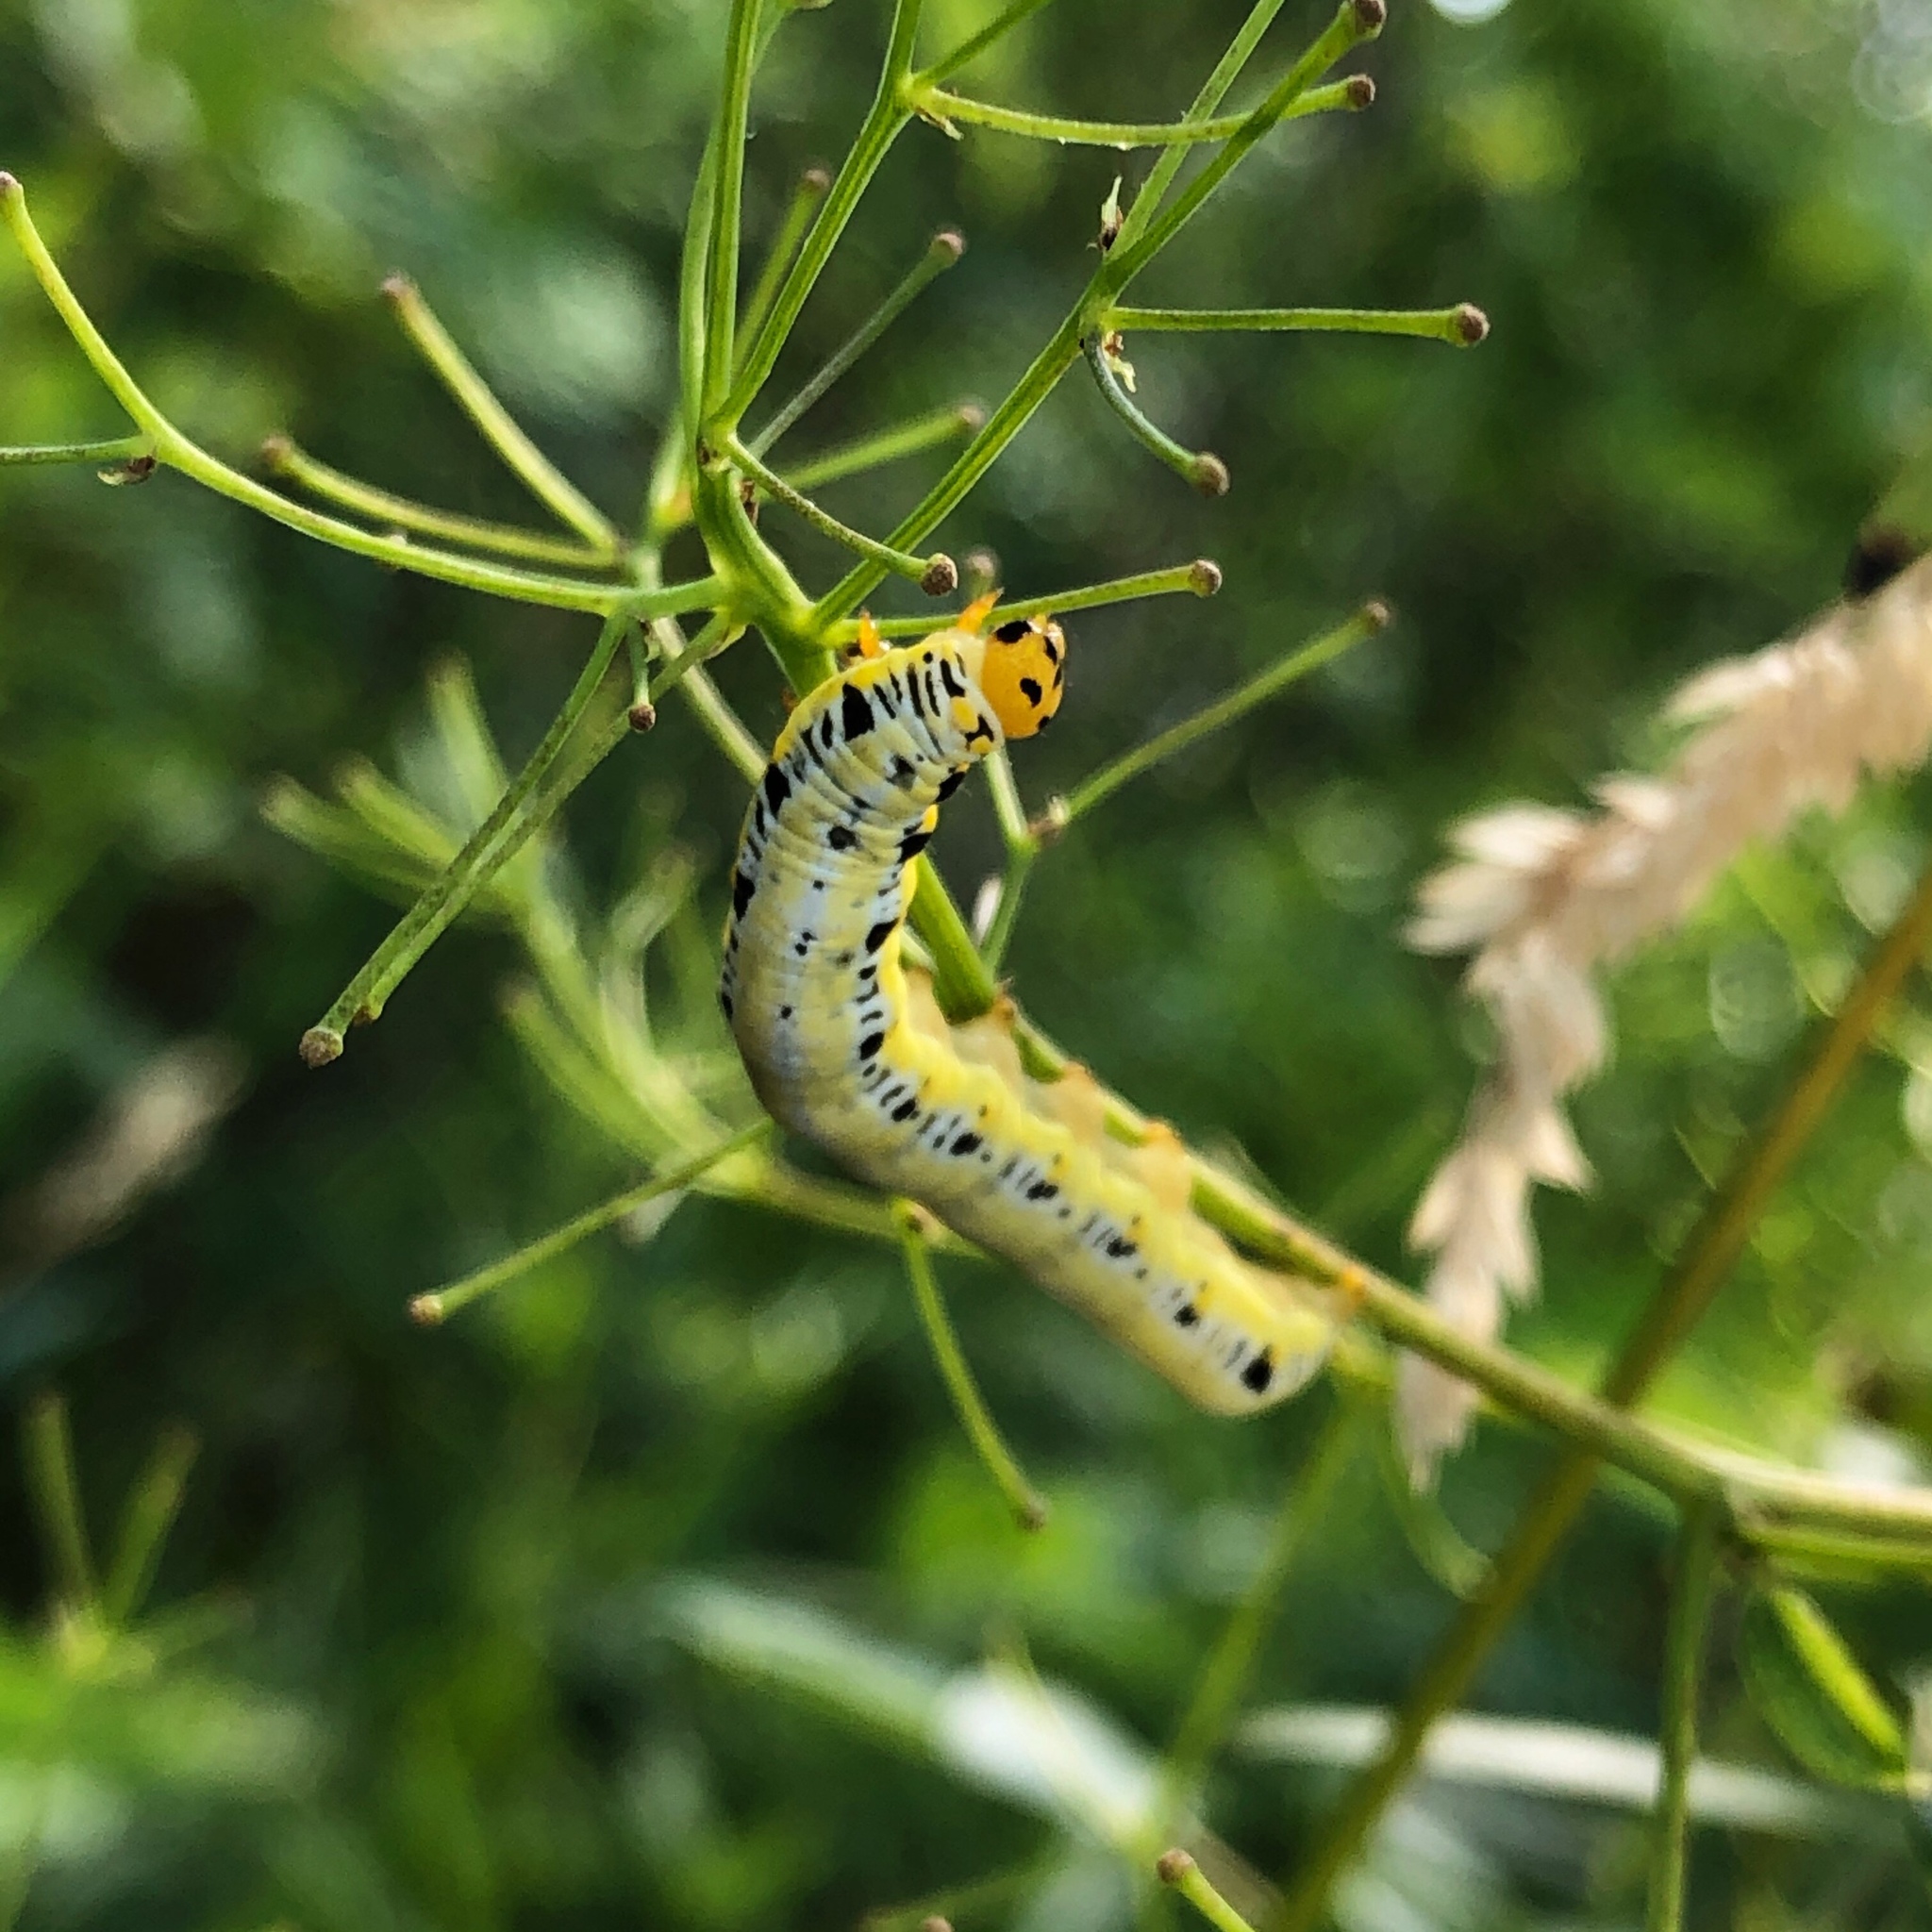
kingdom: Animalia
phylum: Arthropoda
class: Insecta
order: Lepidoptera
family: Erebidae
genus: Calyptra
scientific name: Calyptra canadensis
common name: Canadian owlet
